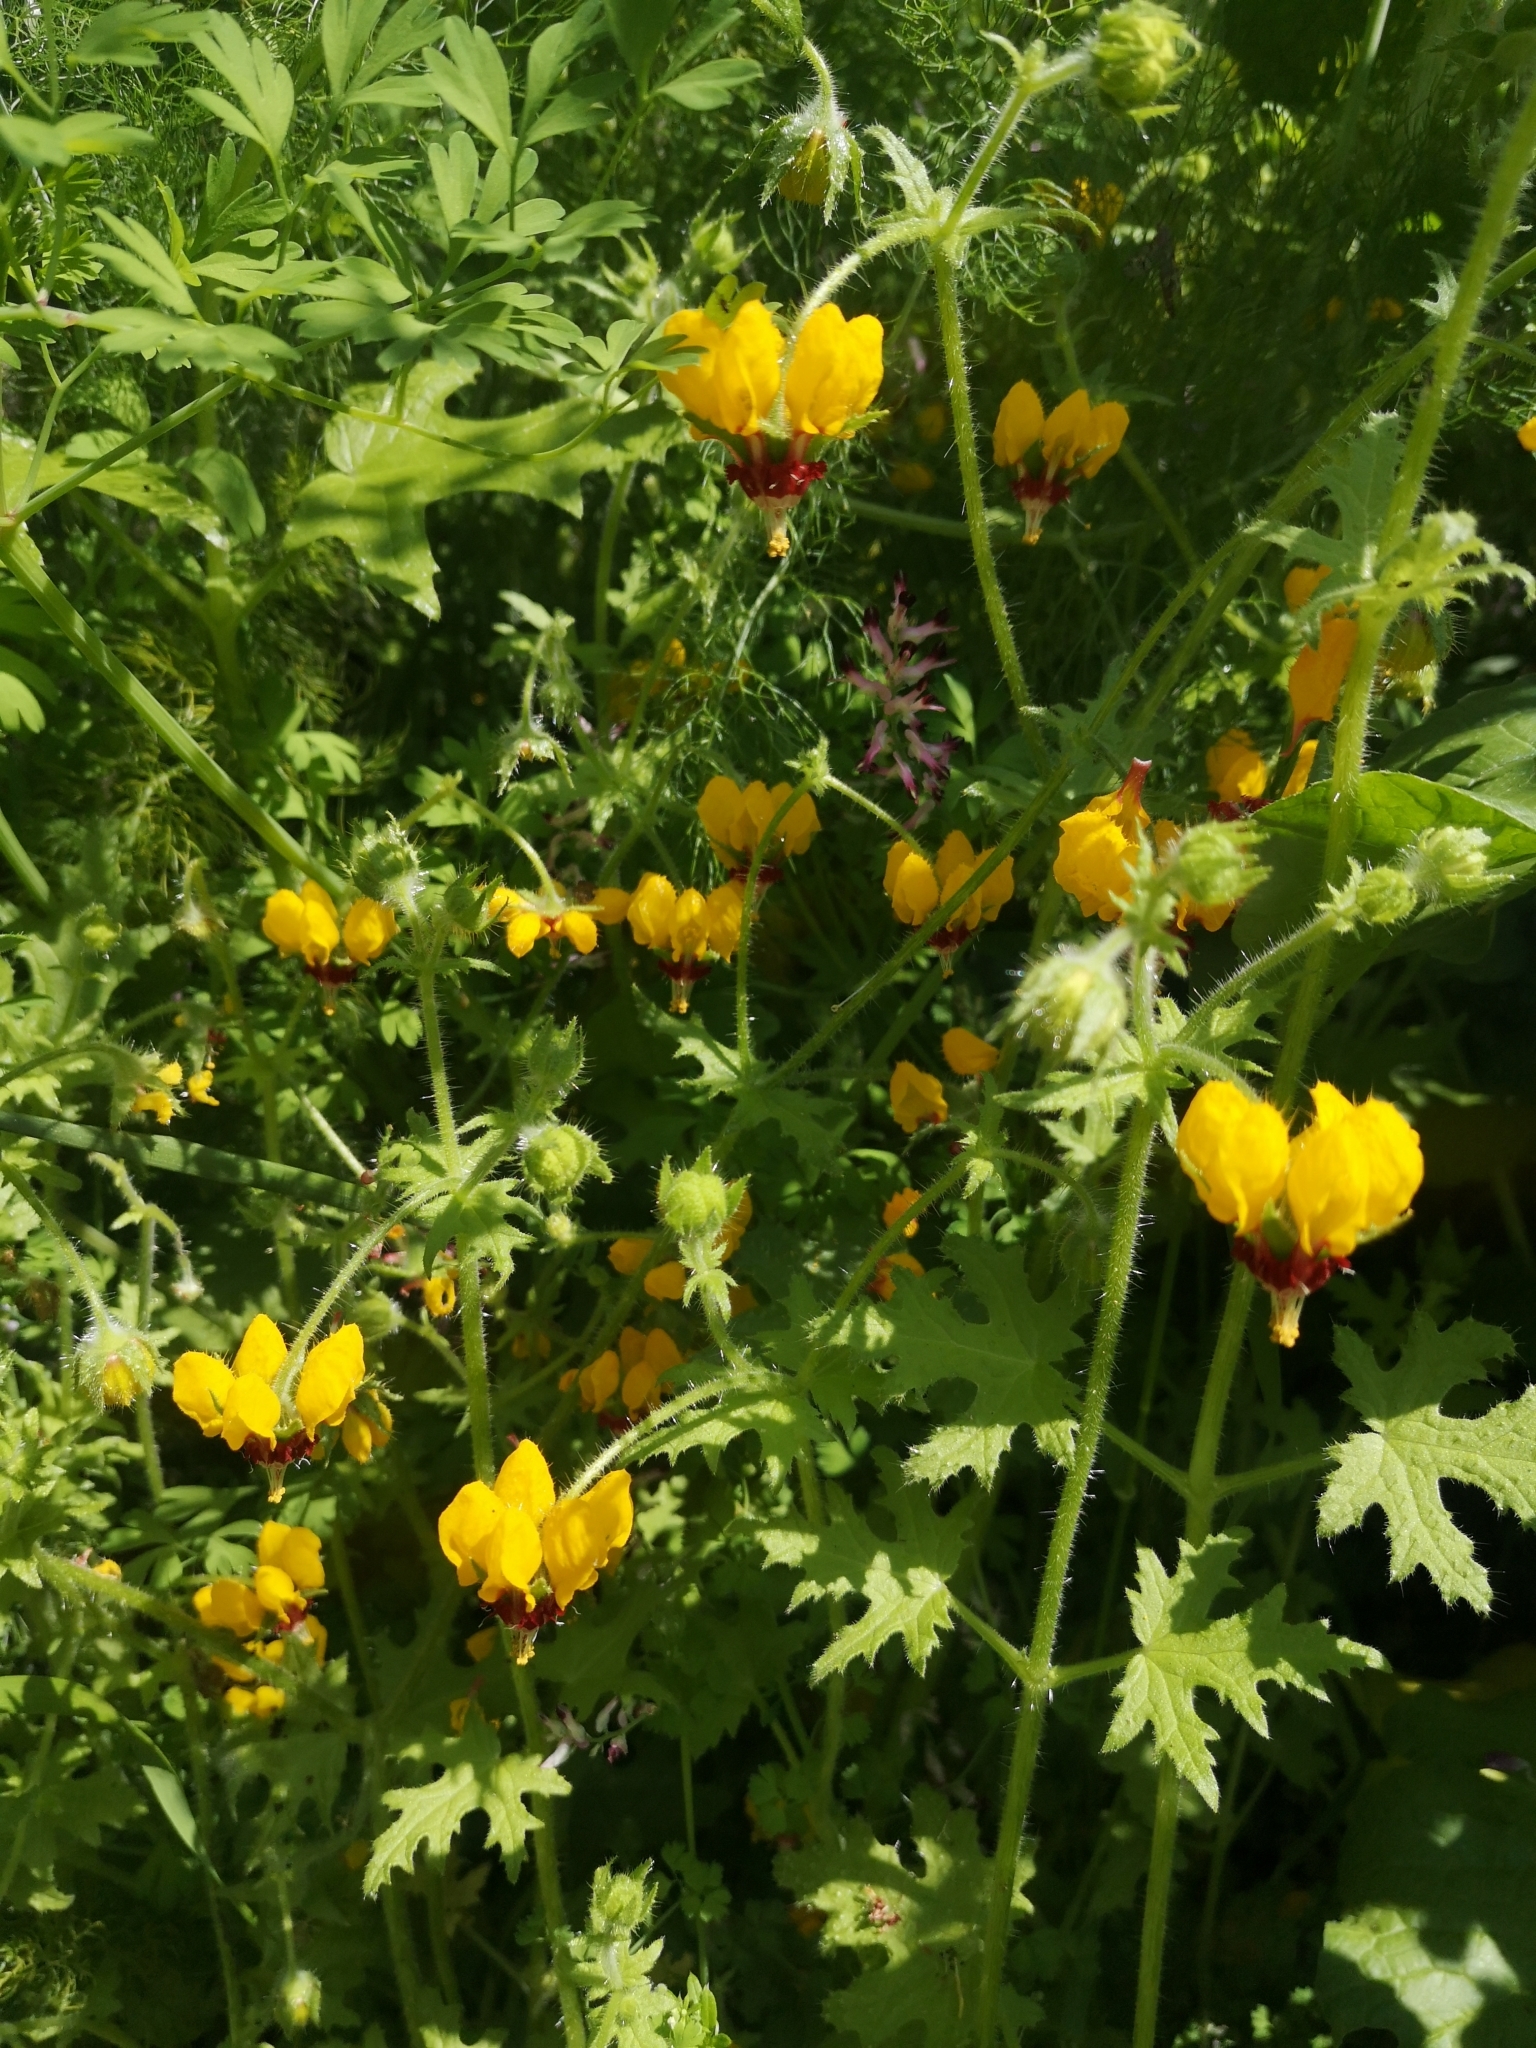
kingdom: Plantae
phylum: Tracheophyta
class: Magnoliopsida
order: Cornales
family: Loasaceae
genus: Loasa
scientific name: Loasa tricolor
